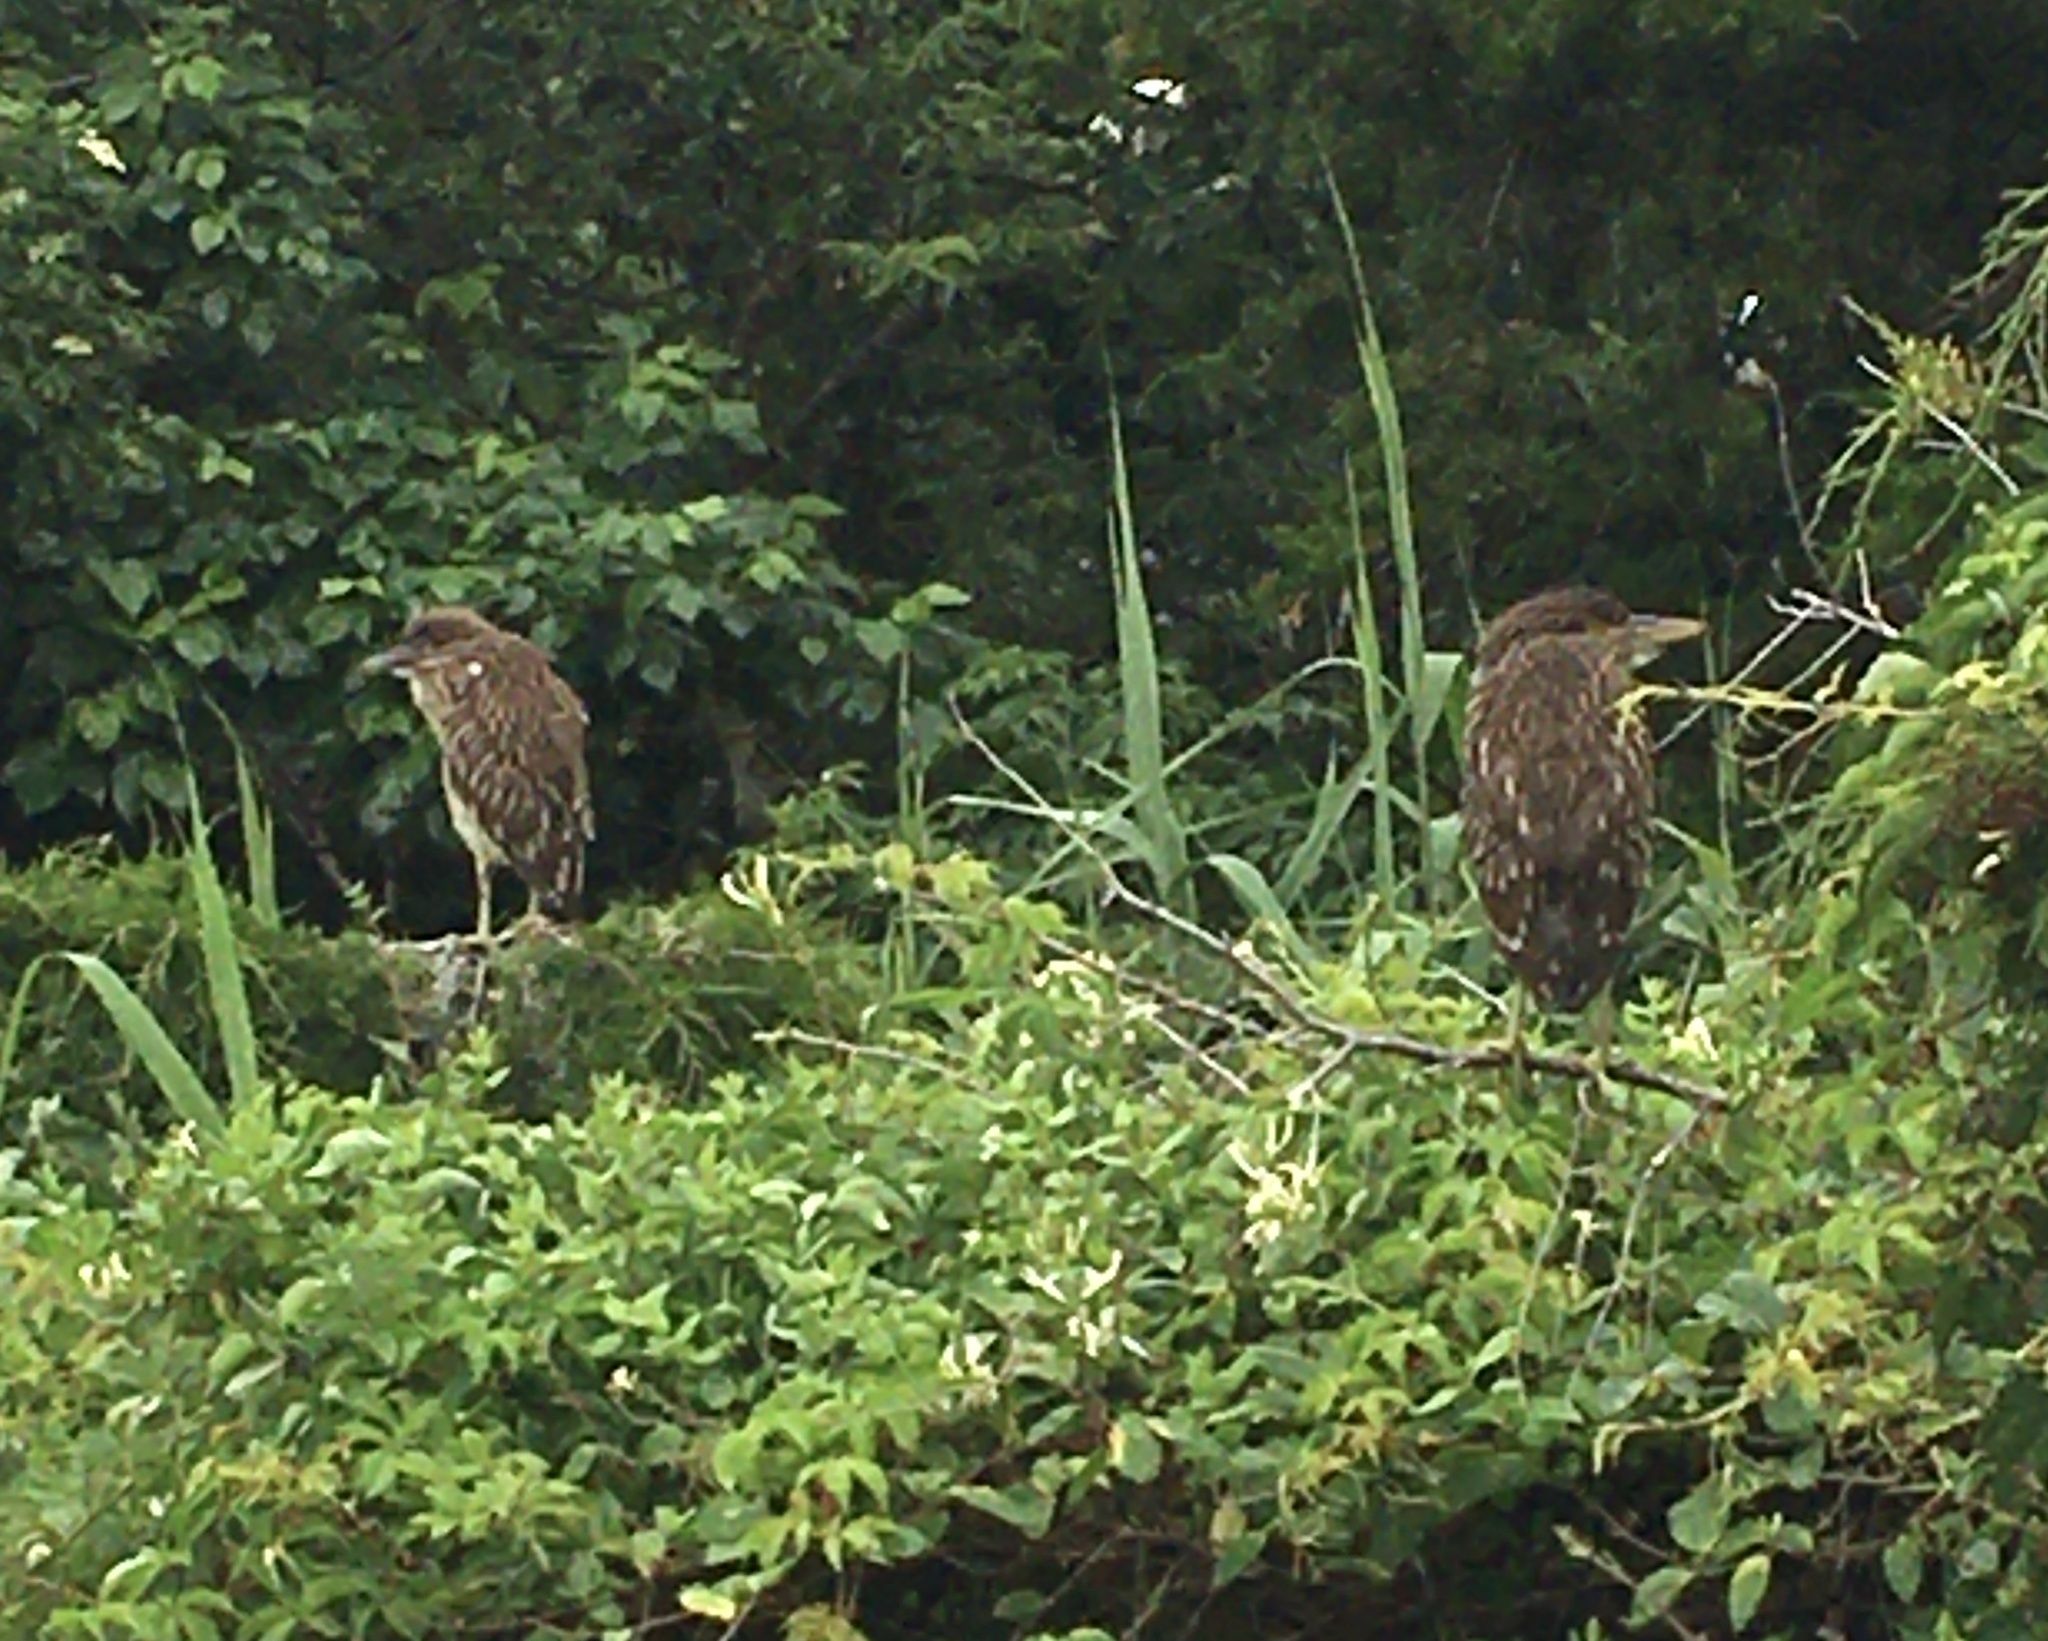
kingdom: Animalia
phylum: Chordata
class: Aves
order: Pelecaniformes
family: Ardeidae
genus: Nycticorax
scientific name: Nycticorax nycticorax
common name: Black-crowned night heron
